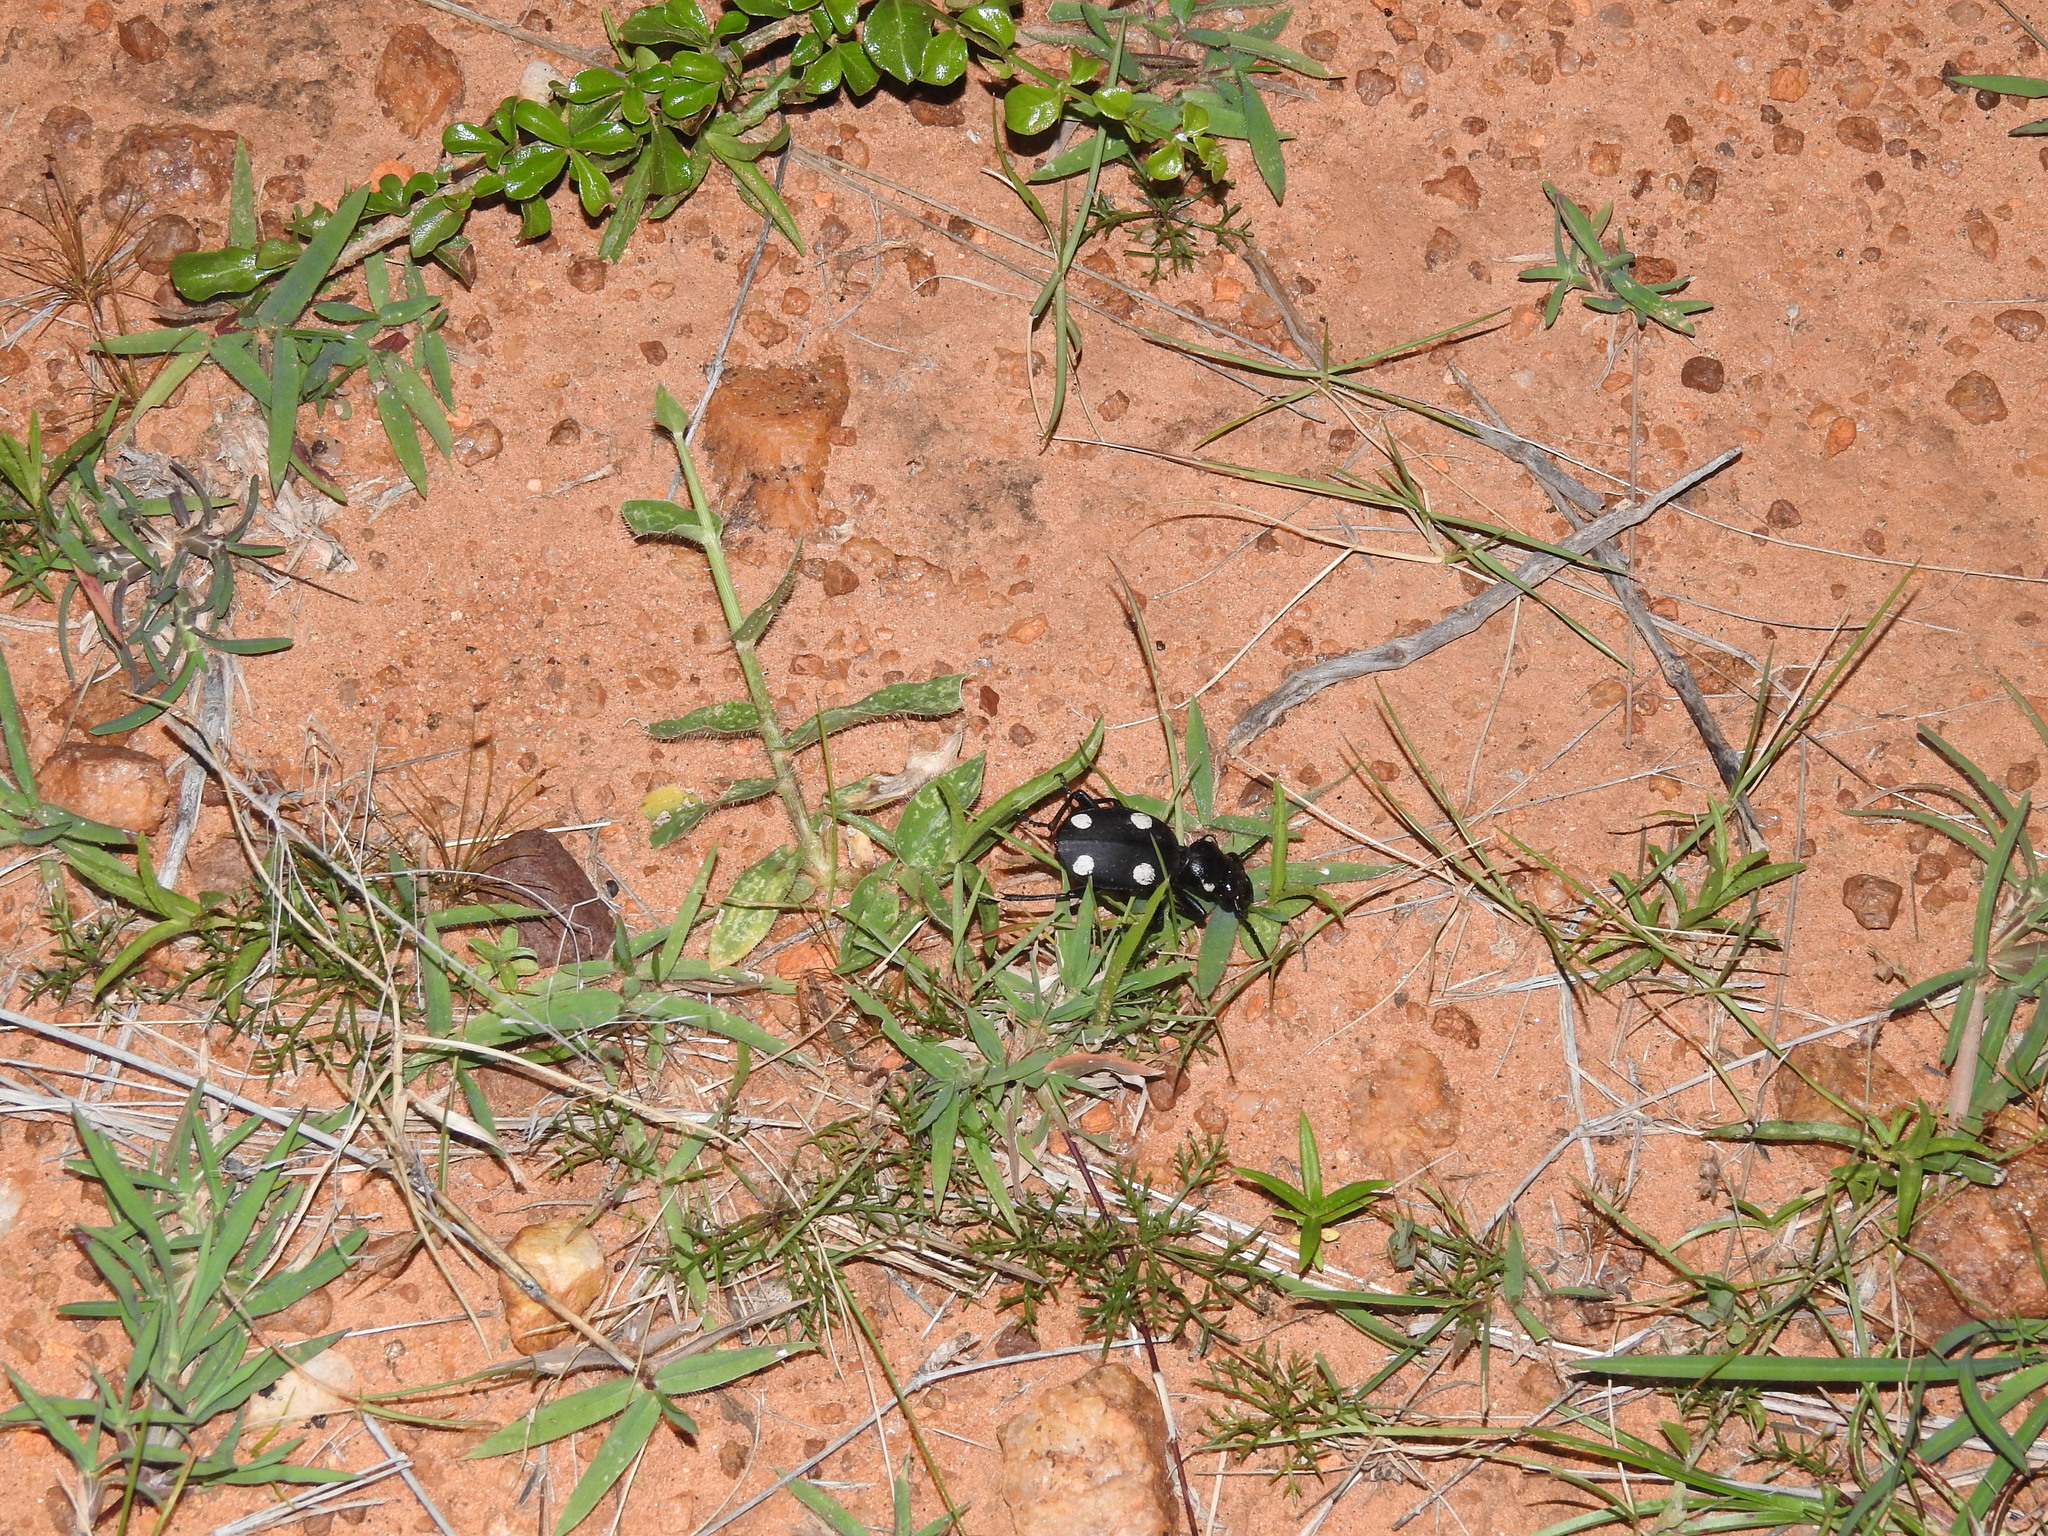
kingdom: Animalia
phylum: Arthropoda
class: Insecta
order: Coleoptera
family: Carabidae
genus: Anthia
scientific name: Anthia sexguttata
